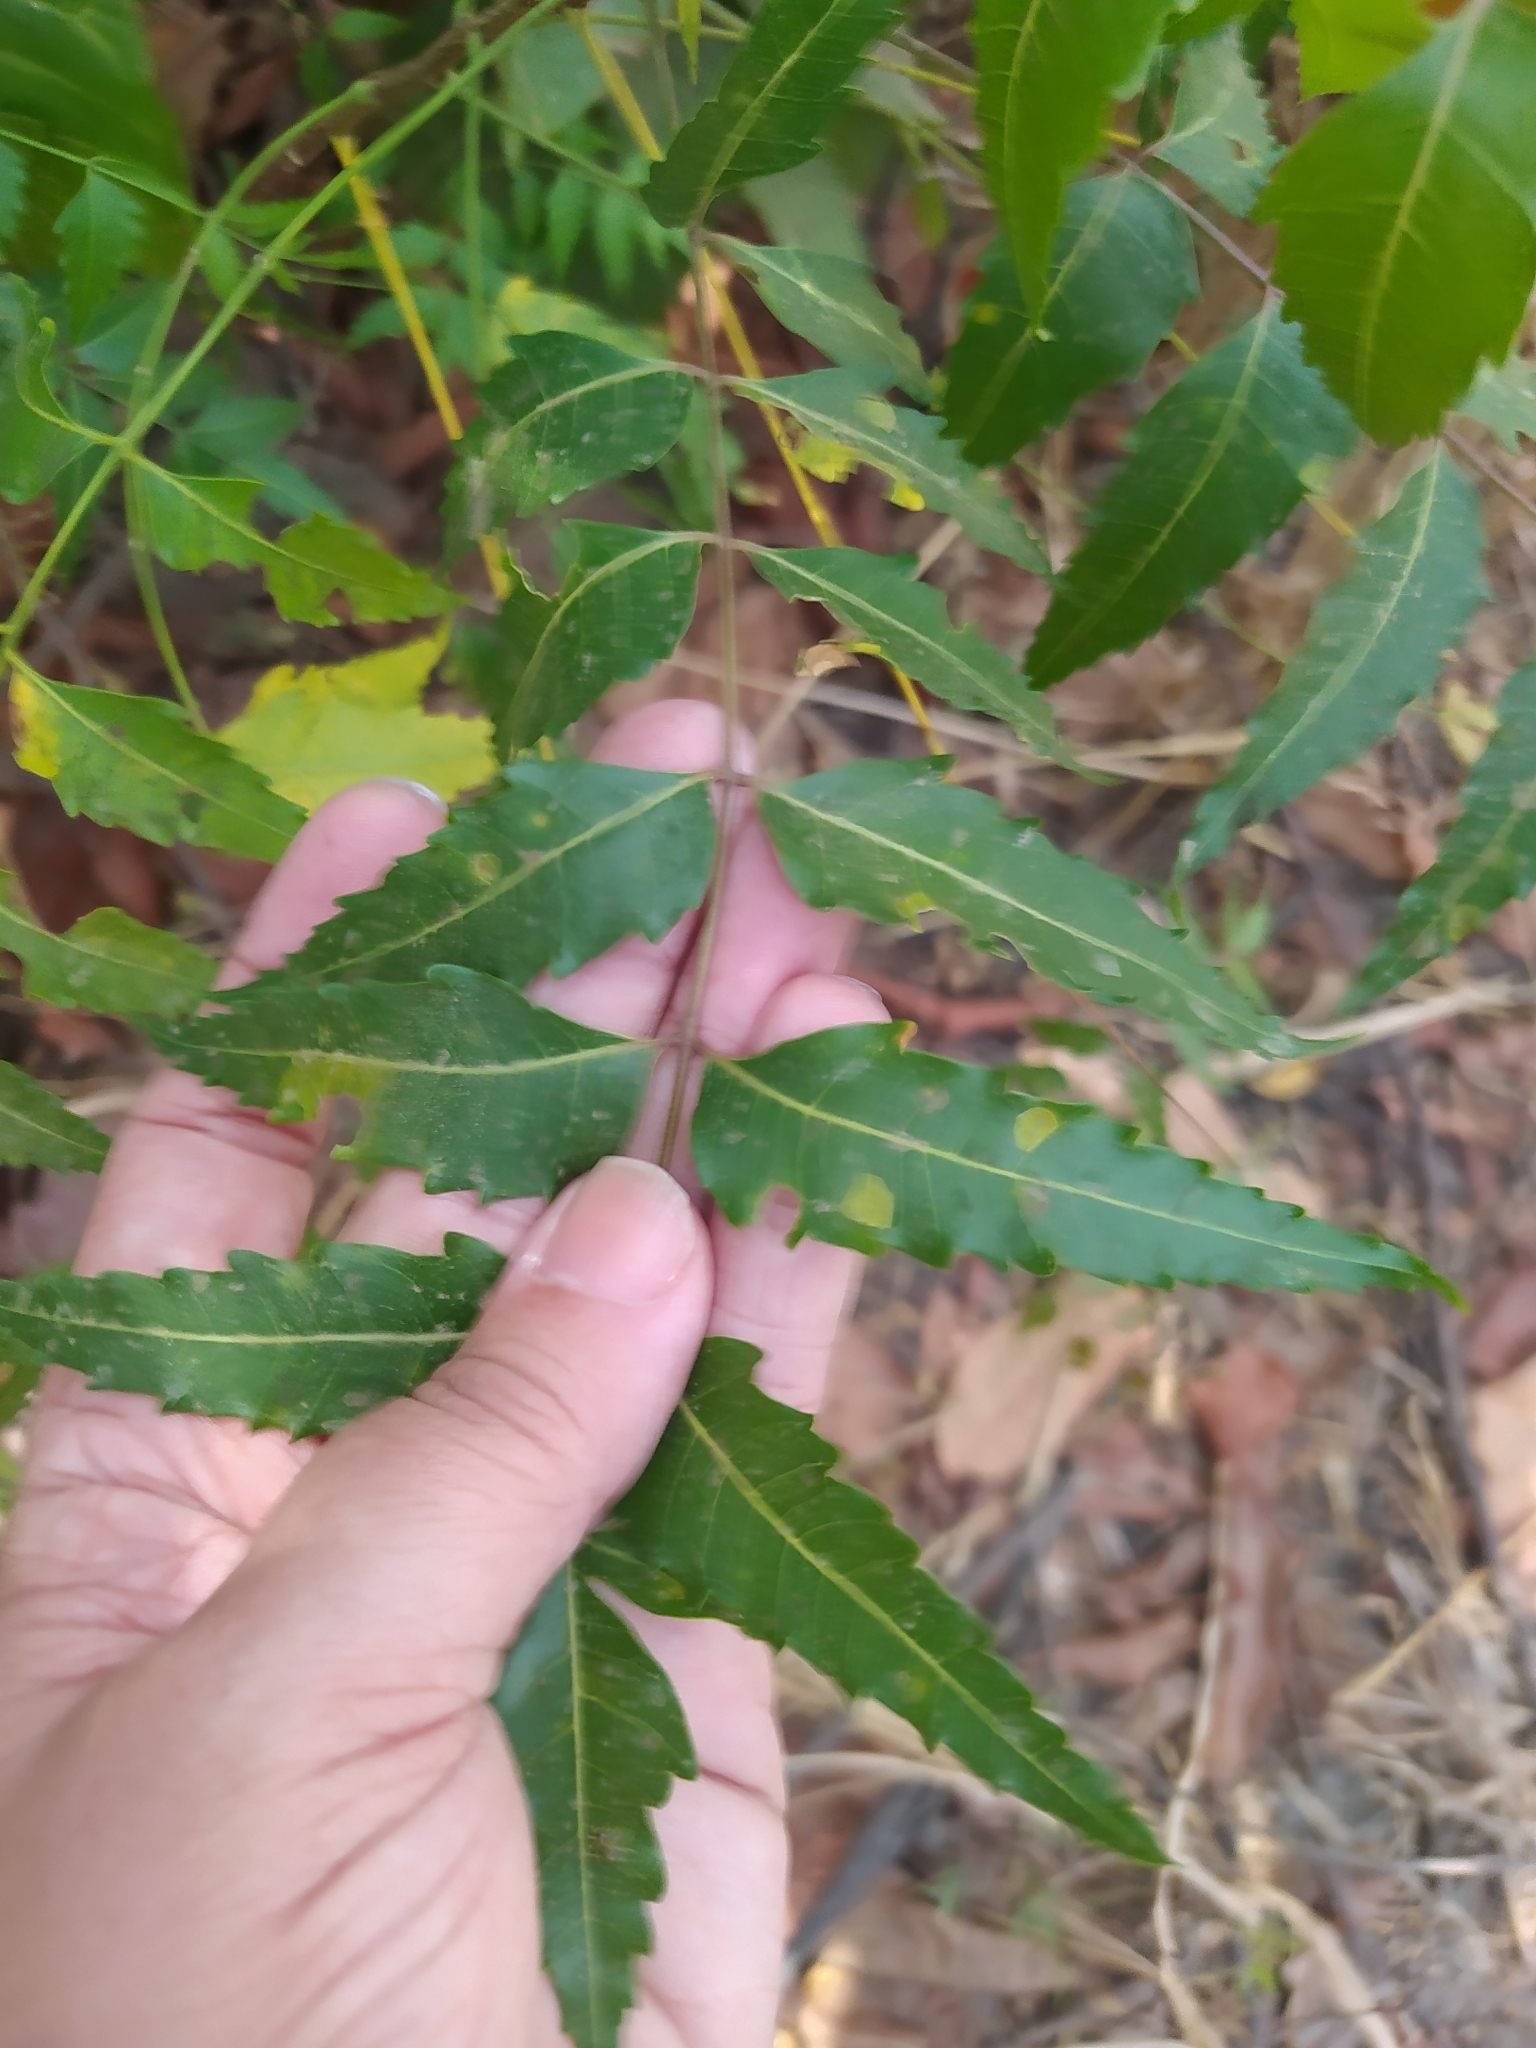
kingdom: Plantae
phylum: Tracheophyta
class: Magnoliopsida
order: Sapindales
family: Meliaceae
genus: Azadirachta
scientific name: Azadirachta indica
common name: Neem
